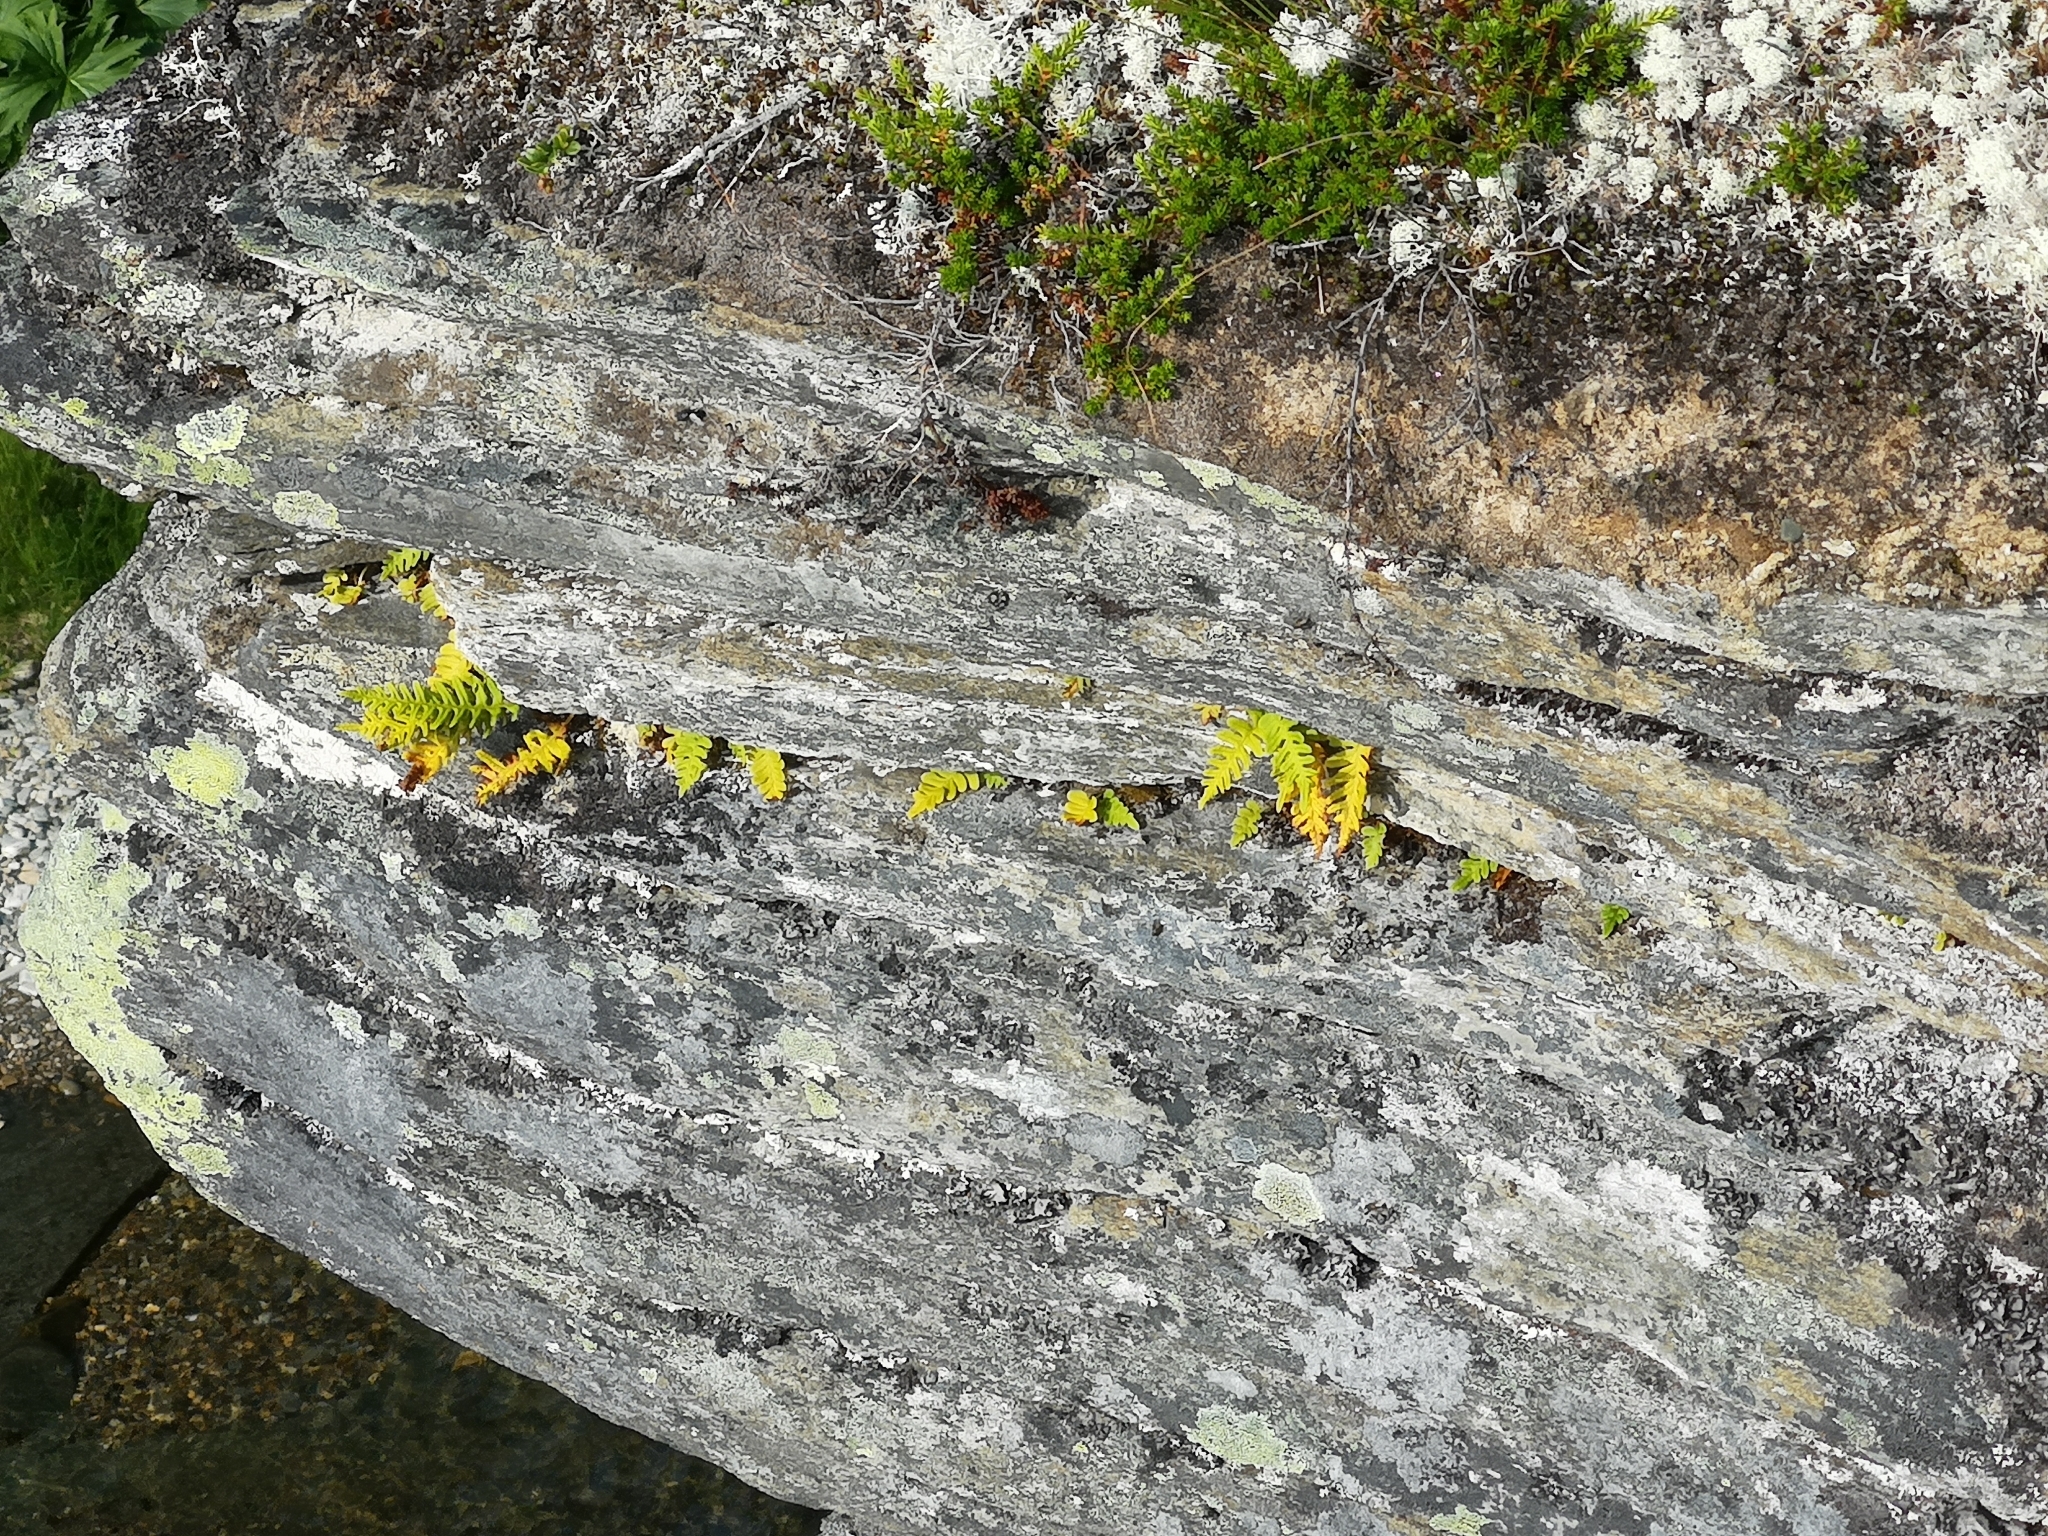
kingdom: Plantae
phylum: Tracheophyta
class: Polypodiopsida
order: Polypodiales
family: Polypodiaceae
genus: Polypodium
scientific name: Polypodium vulgare
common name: Common polypody
